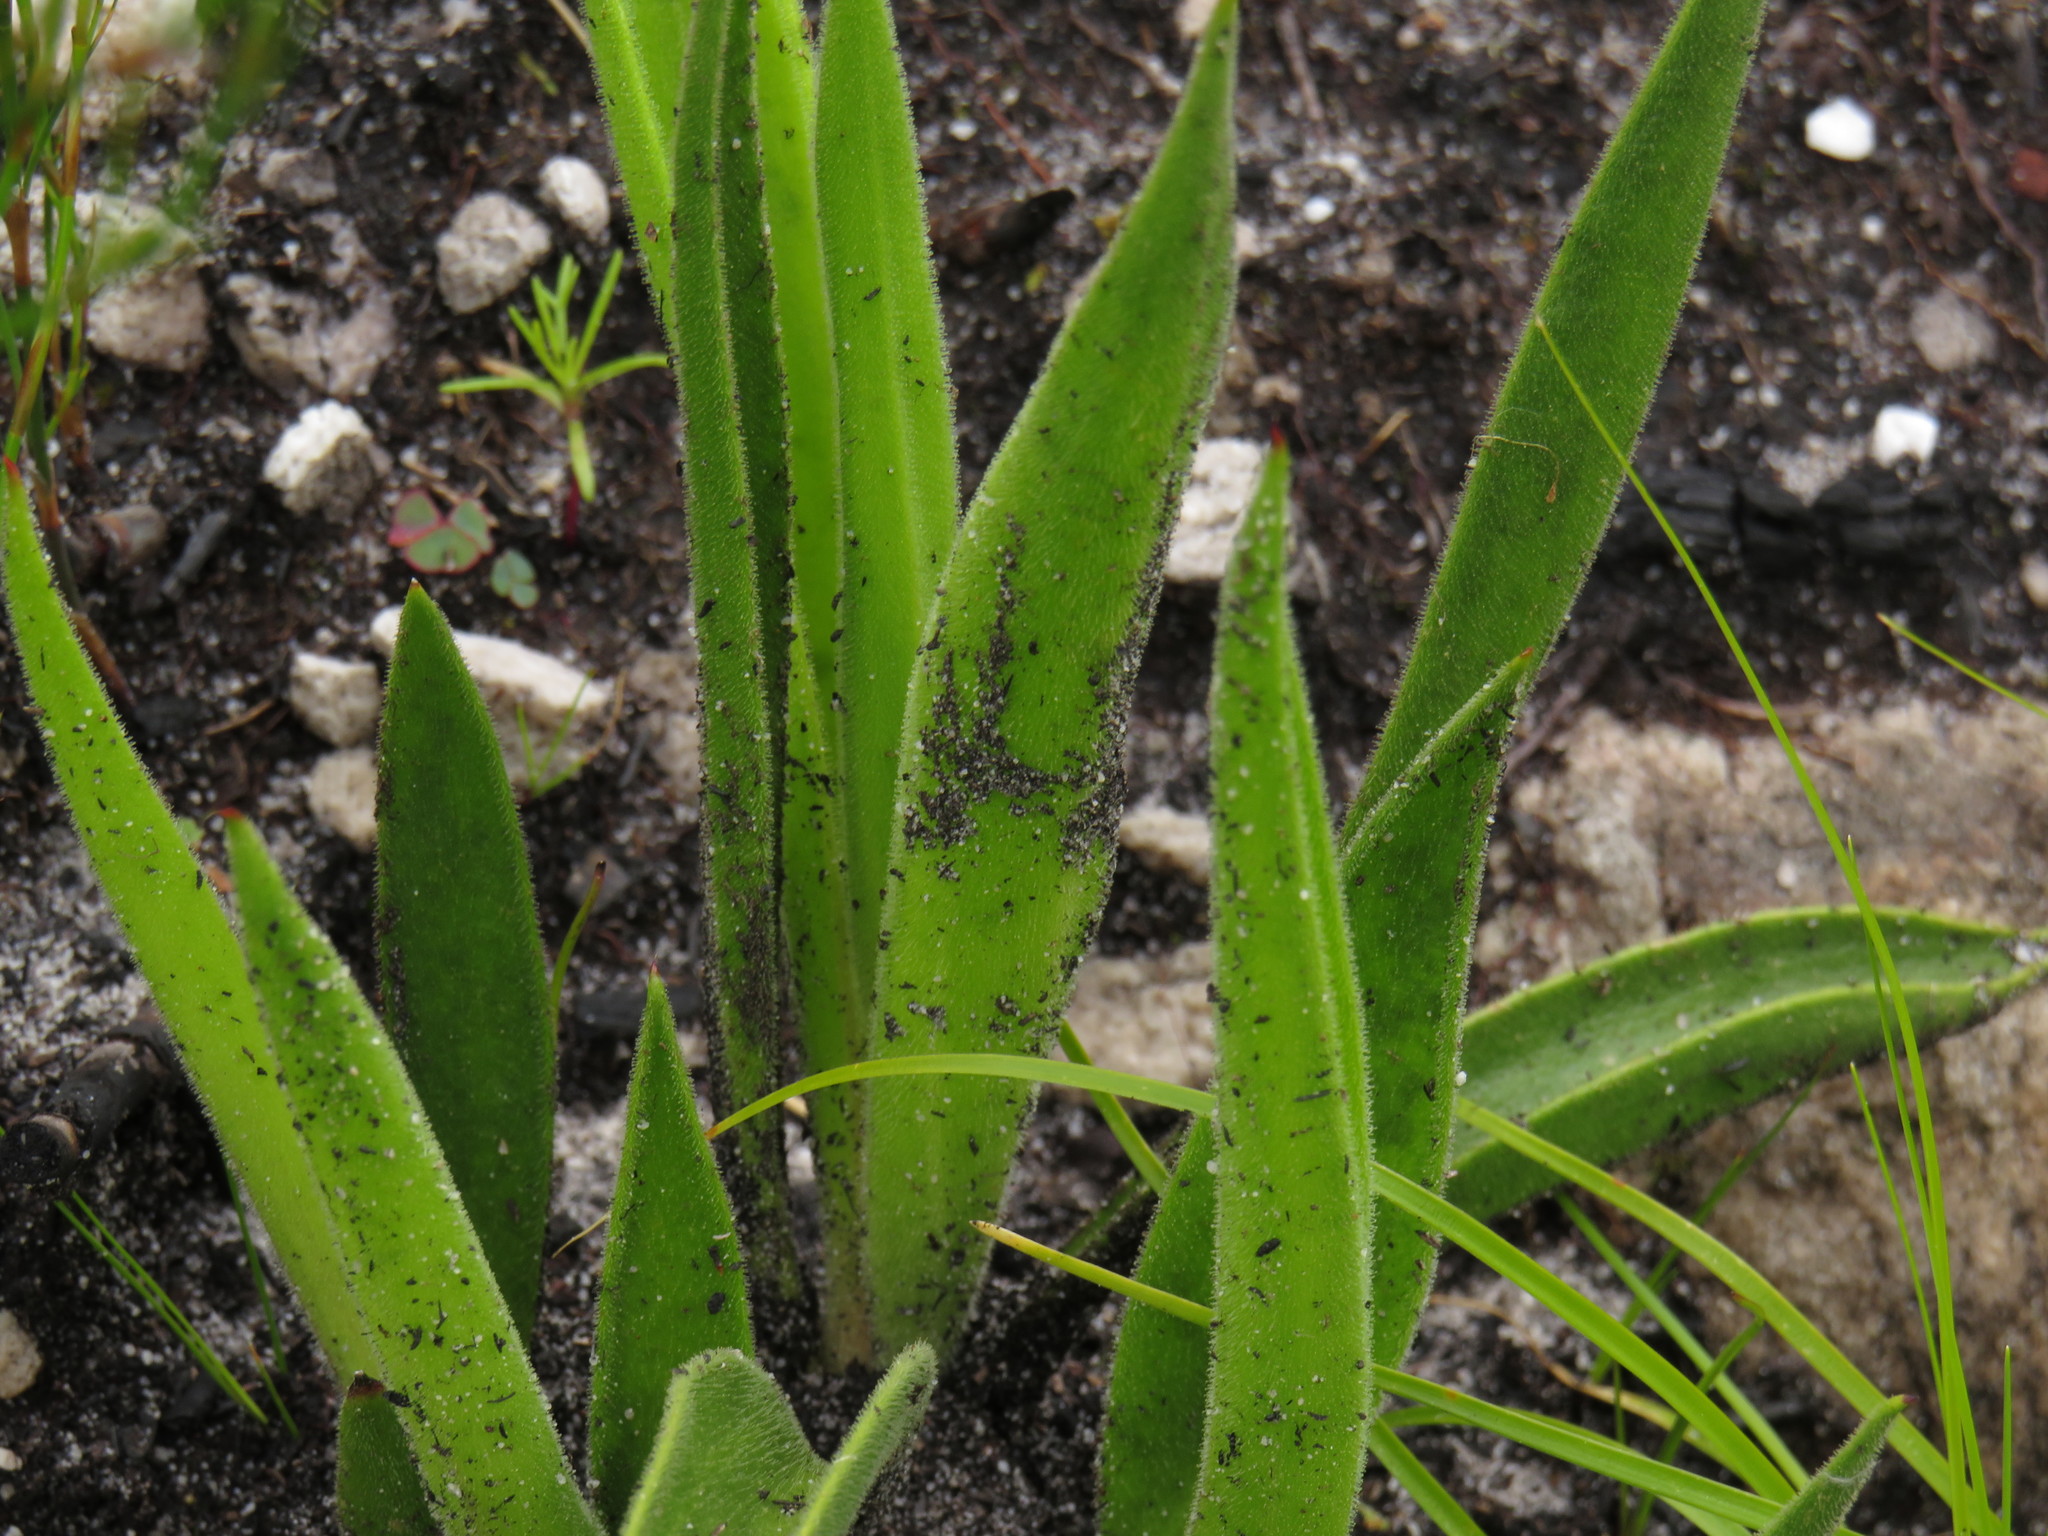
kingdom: Plantae
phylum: Tracheophyta
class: Magnoliopsida
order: Asterales
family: Asteraceae
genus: Corymbium
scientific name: Corymbium congestum
